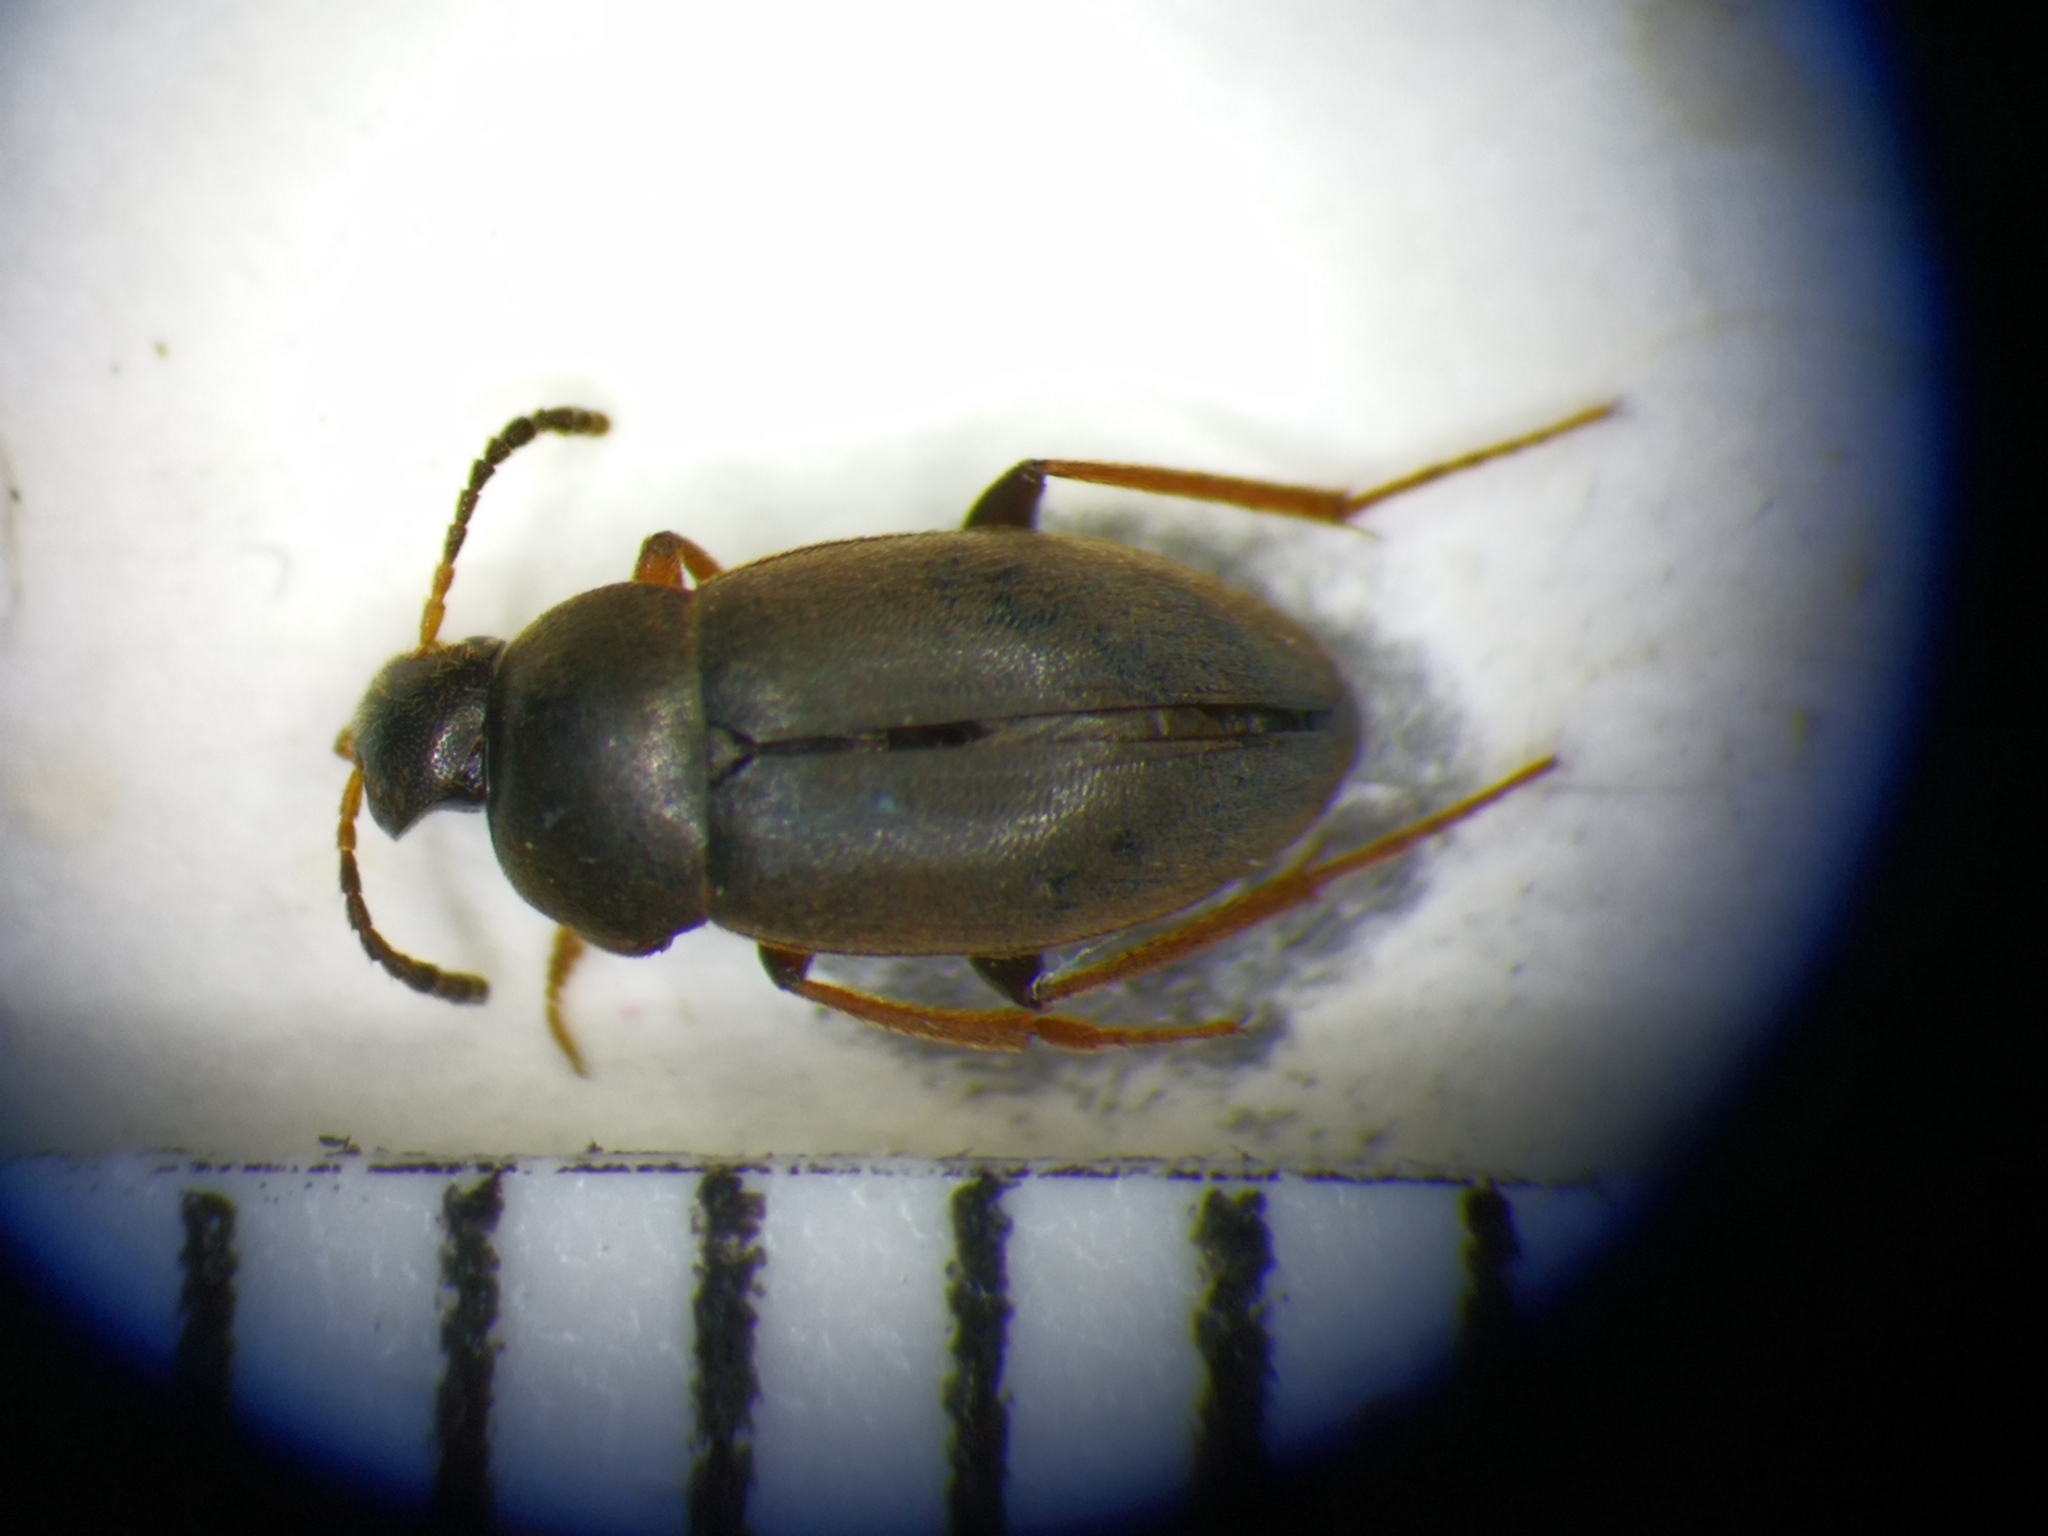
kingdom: Animalia
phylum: Arthropoda
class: Insecta
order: Coleoptera
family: Leiodidae
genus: Catops
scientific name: Catops morio
